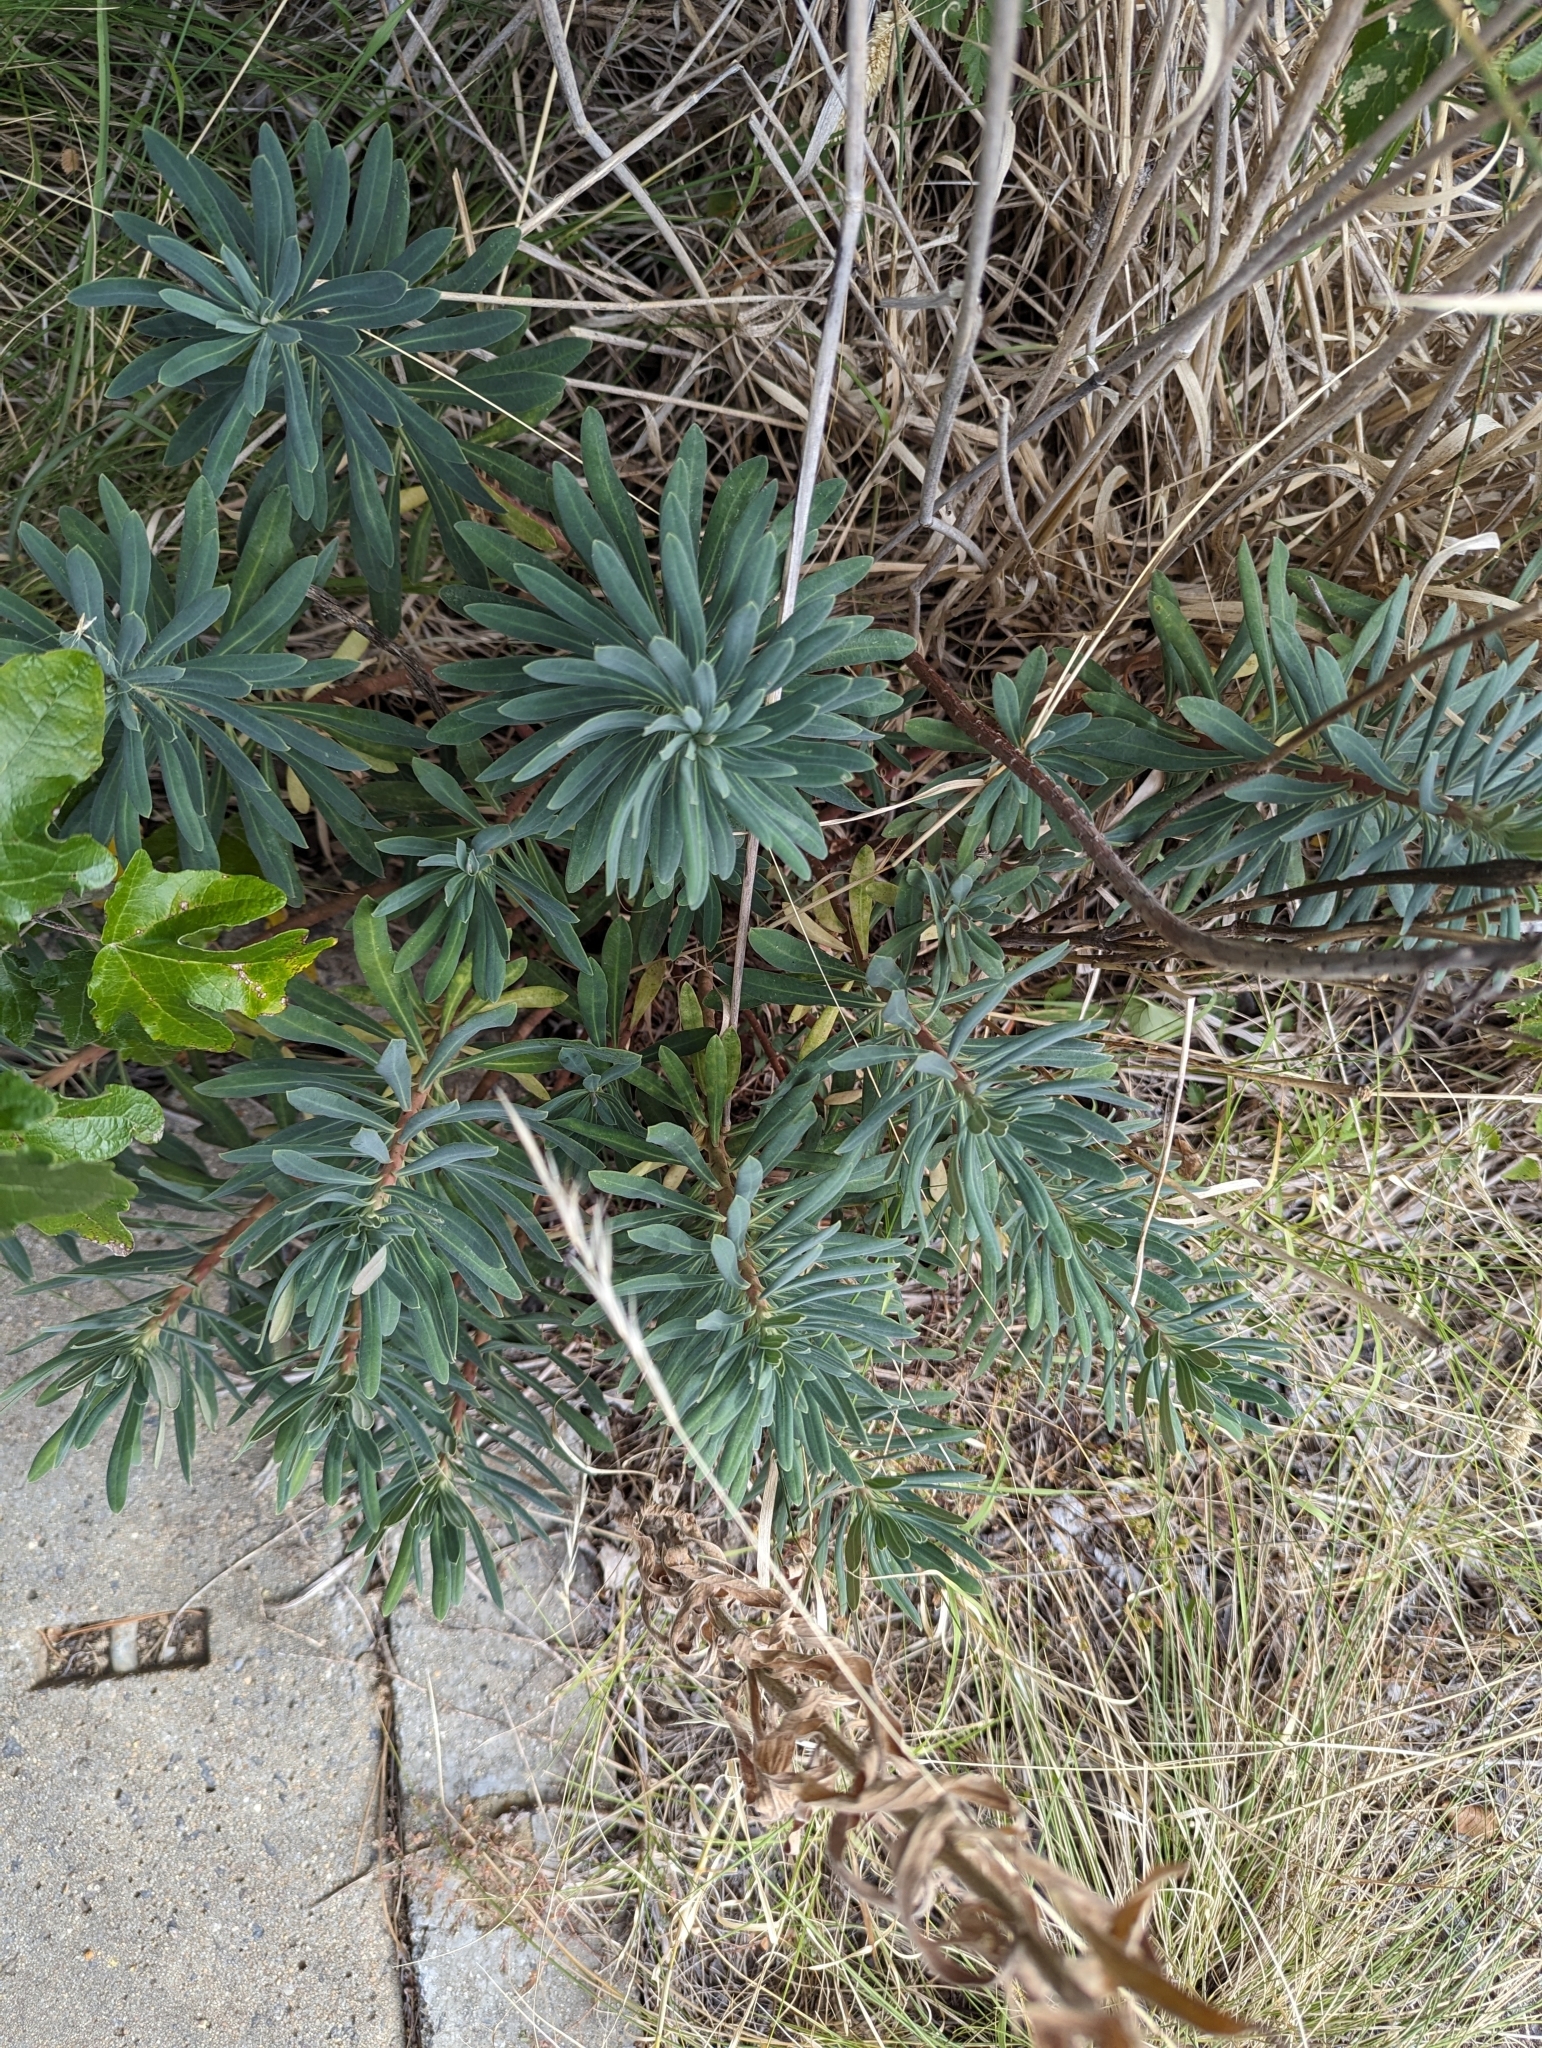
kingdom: Plantae
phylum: Tracheophyta
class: Magnoliopsida
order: Malpighiales
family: Euphorbiaceae
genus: Euphorbia
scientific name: Euphorbia characias
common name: Mediterranean spurge
